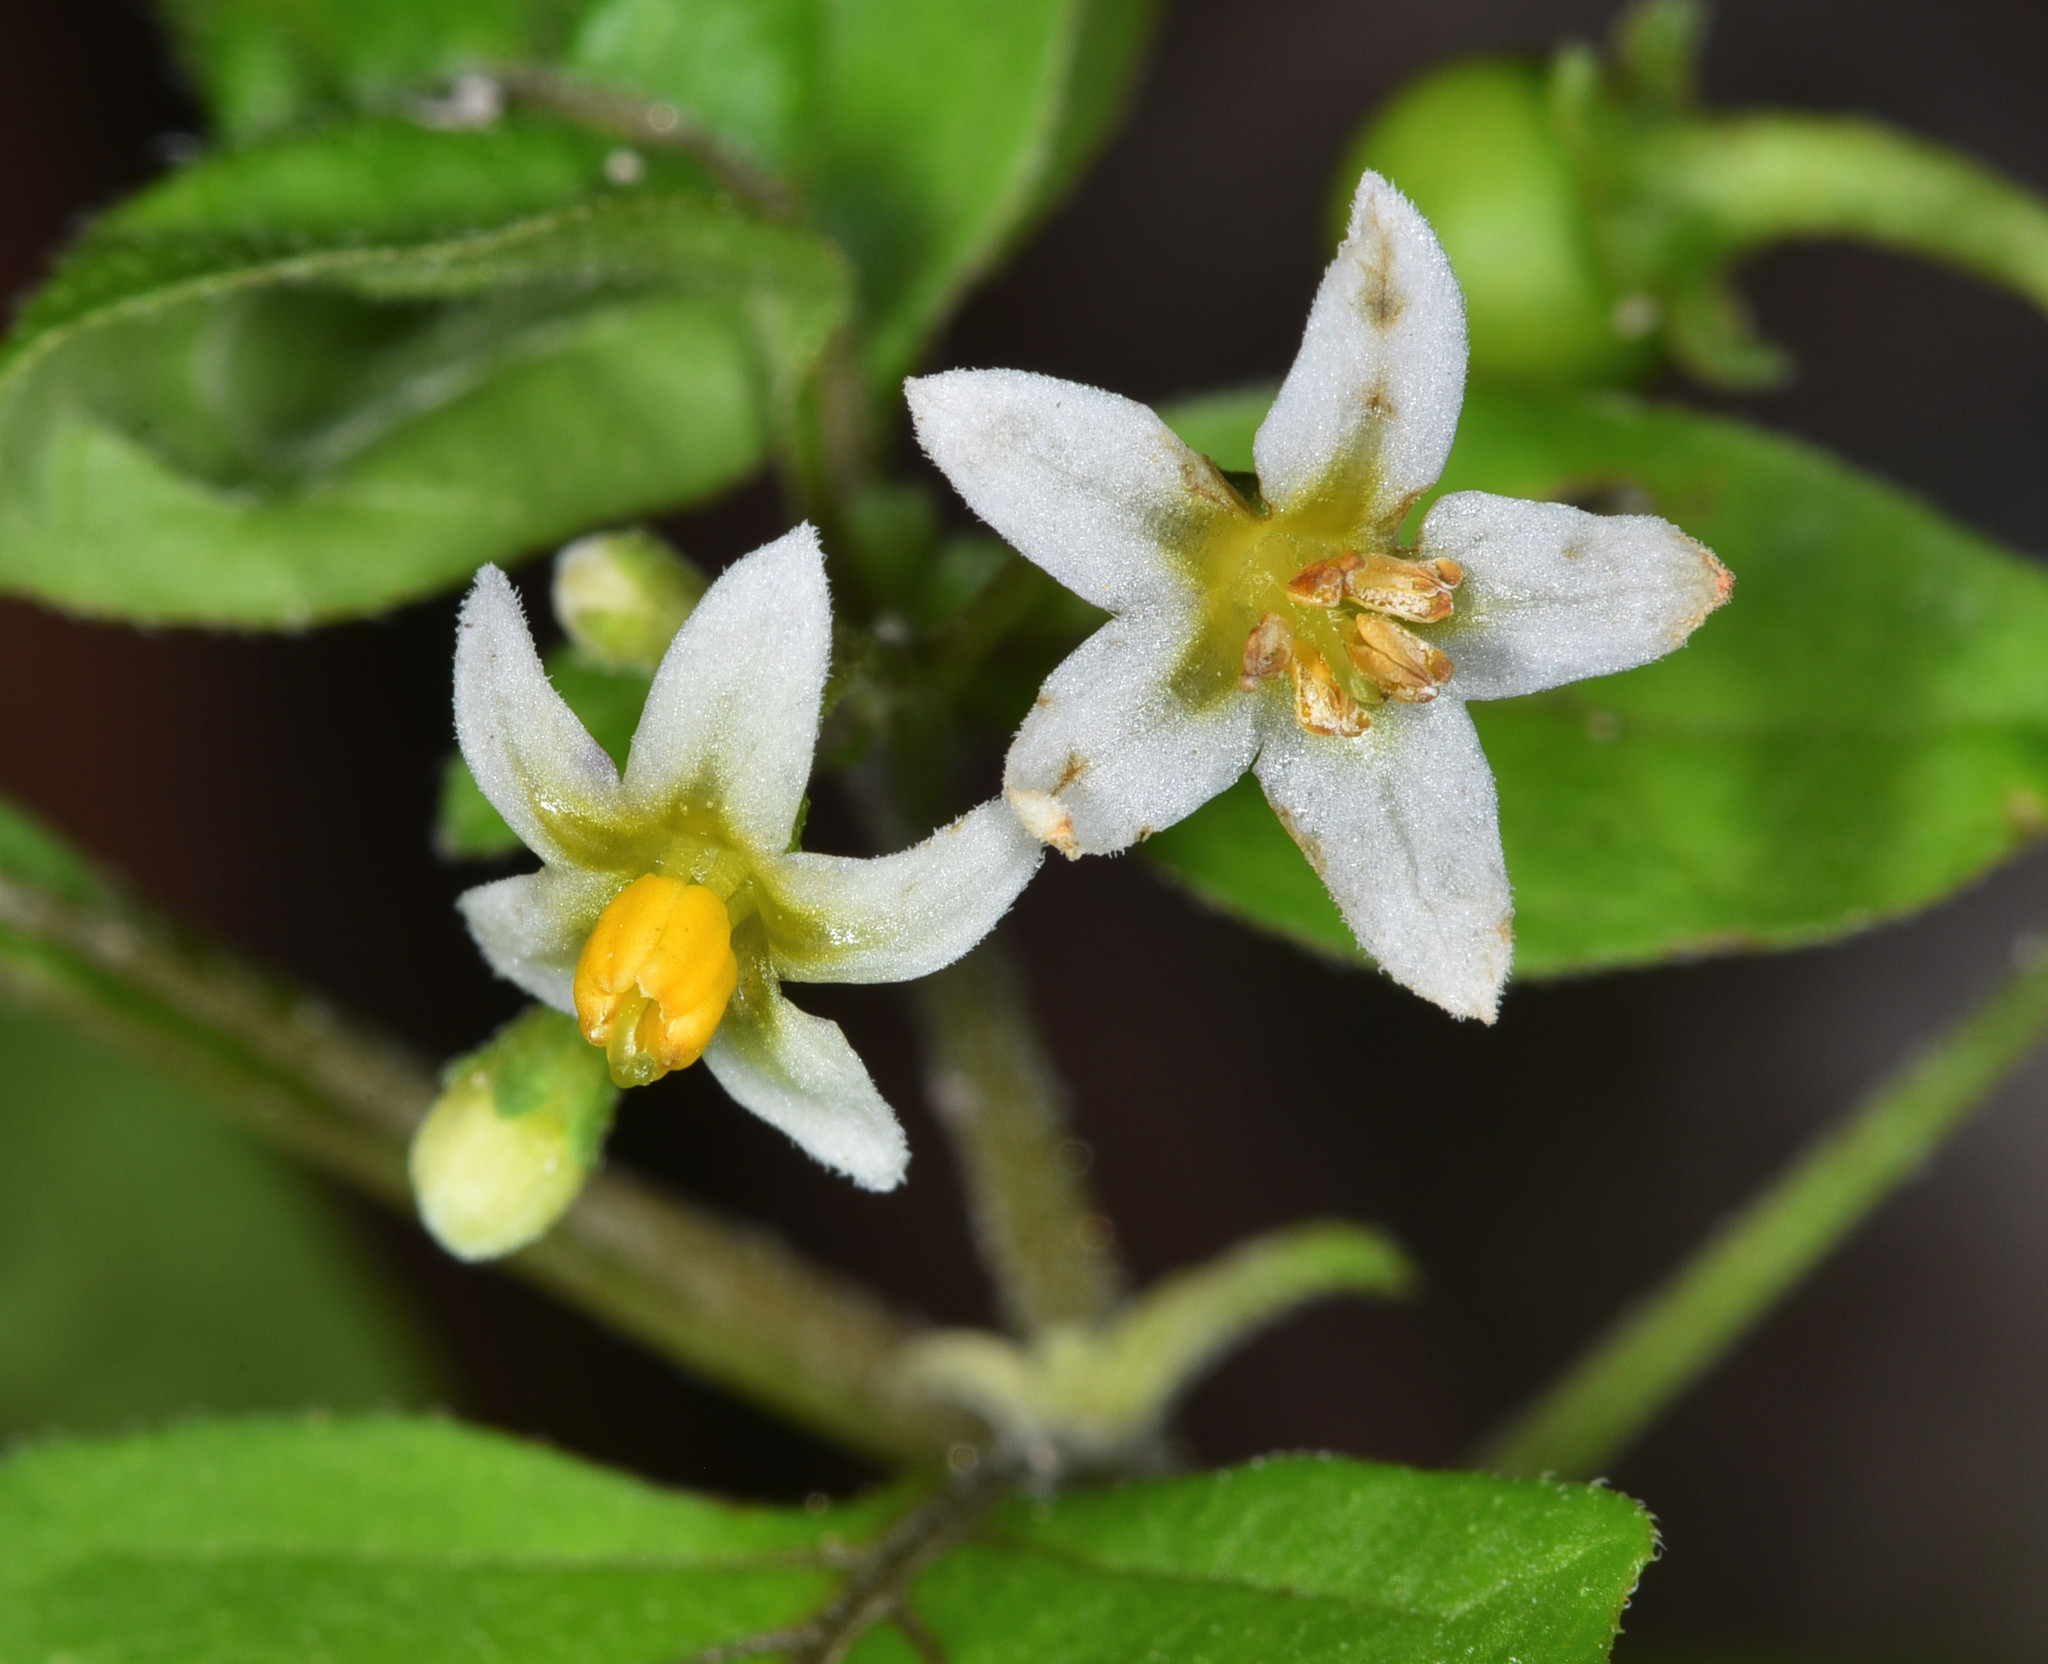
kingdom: Plantae
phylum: Tracheophyta
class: Magnoliopsida
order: Solanales
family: Solanaceae
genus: Solanum
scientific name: Solanum americanum
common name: American black nightshade
